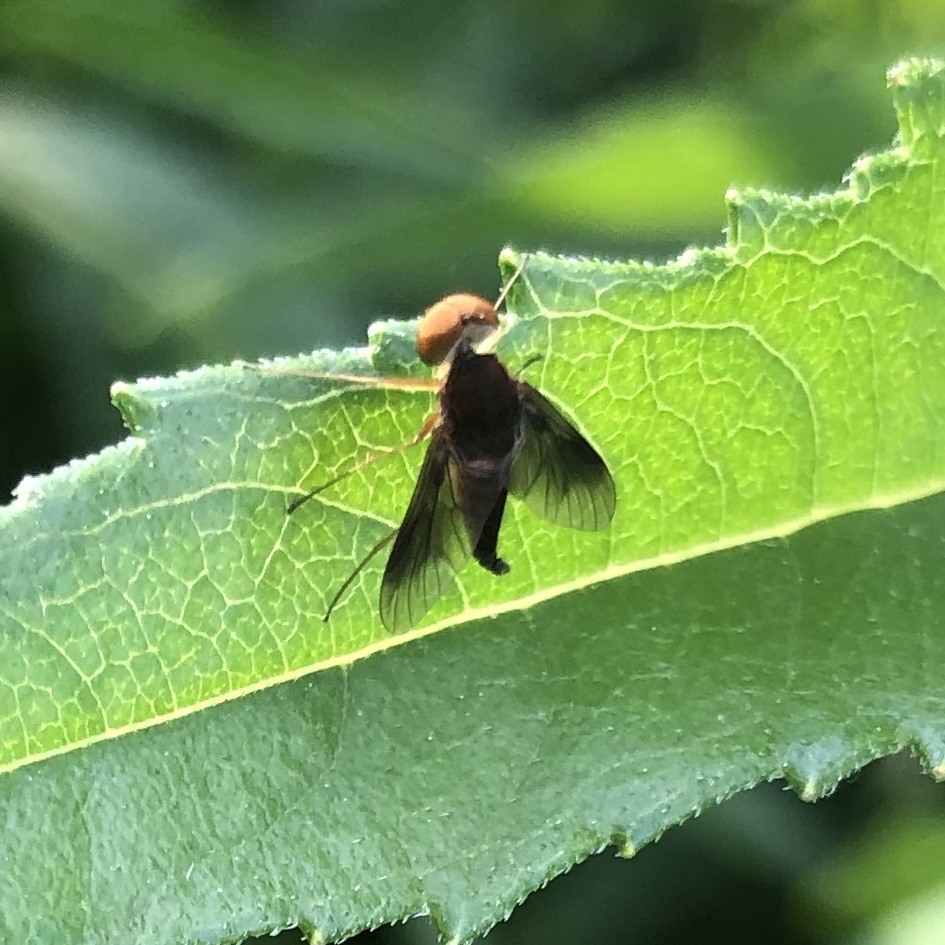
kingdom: Animalia
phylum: Arthropoda
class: Insecta
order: Diptera
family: Rhagionidae
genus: Chrysopilus
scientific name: Chrysopilus quadratus
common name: Quadrate snipe fly
